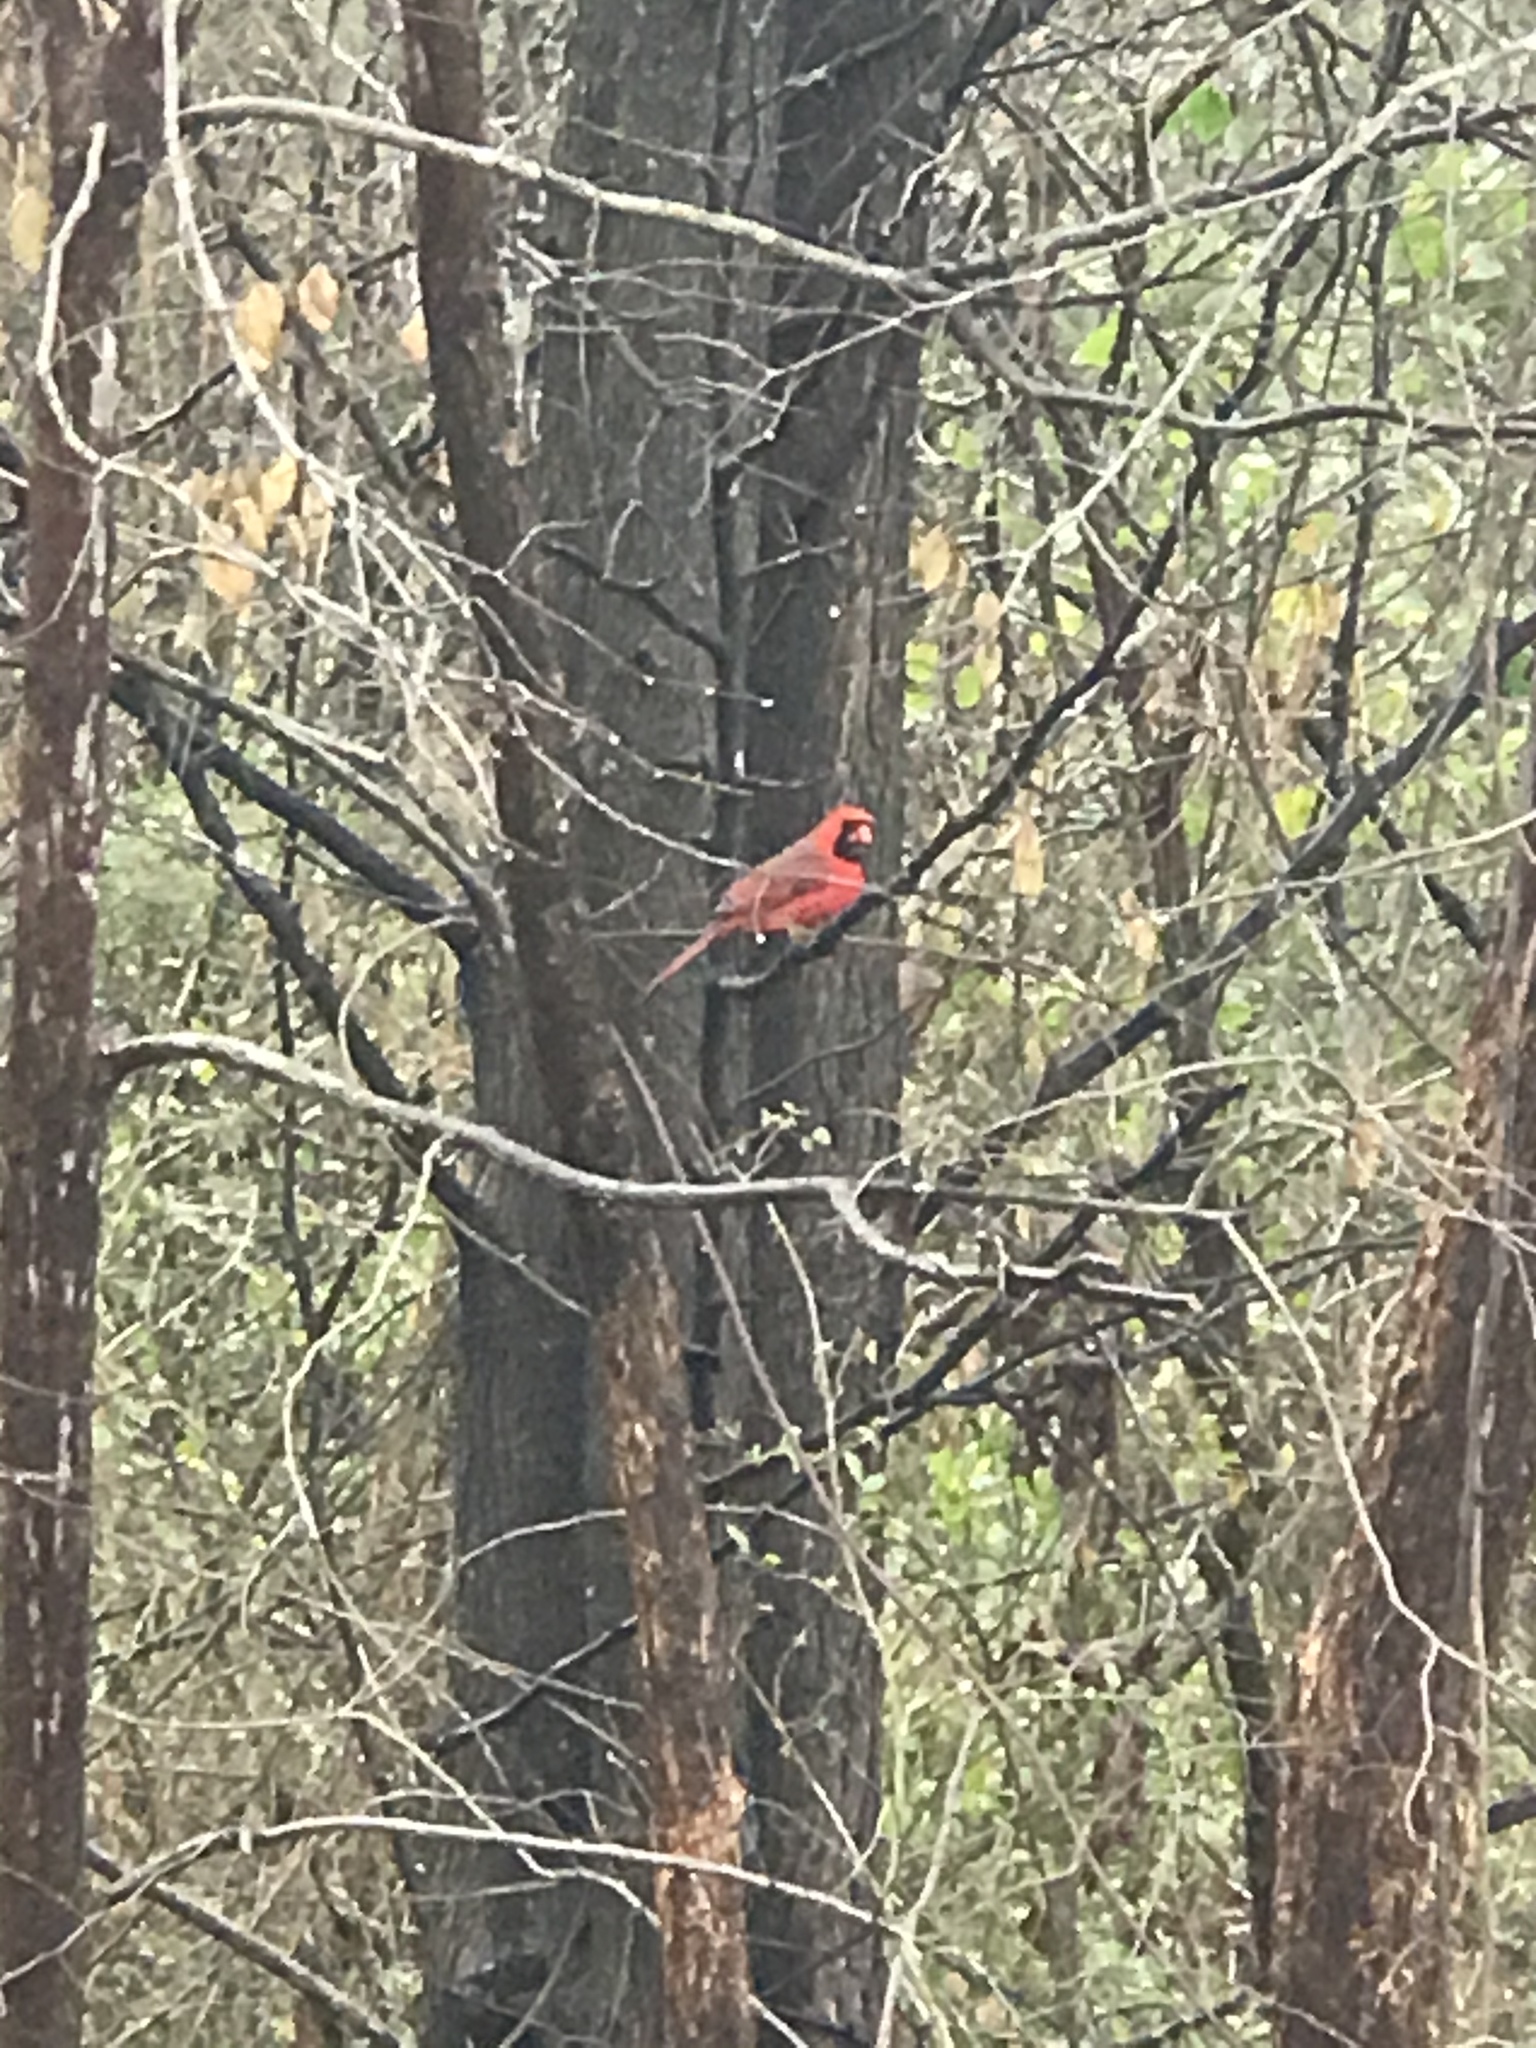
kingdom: Animalia
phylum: Chordata
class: Aves
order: Passeriformes
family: Cardinalidae
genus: Cardinalis
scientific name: Cardinalis cardinalis
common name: Northern cardinal
